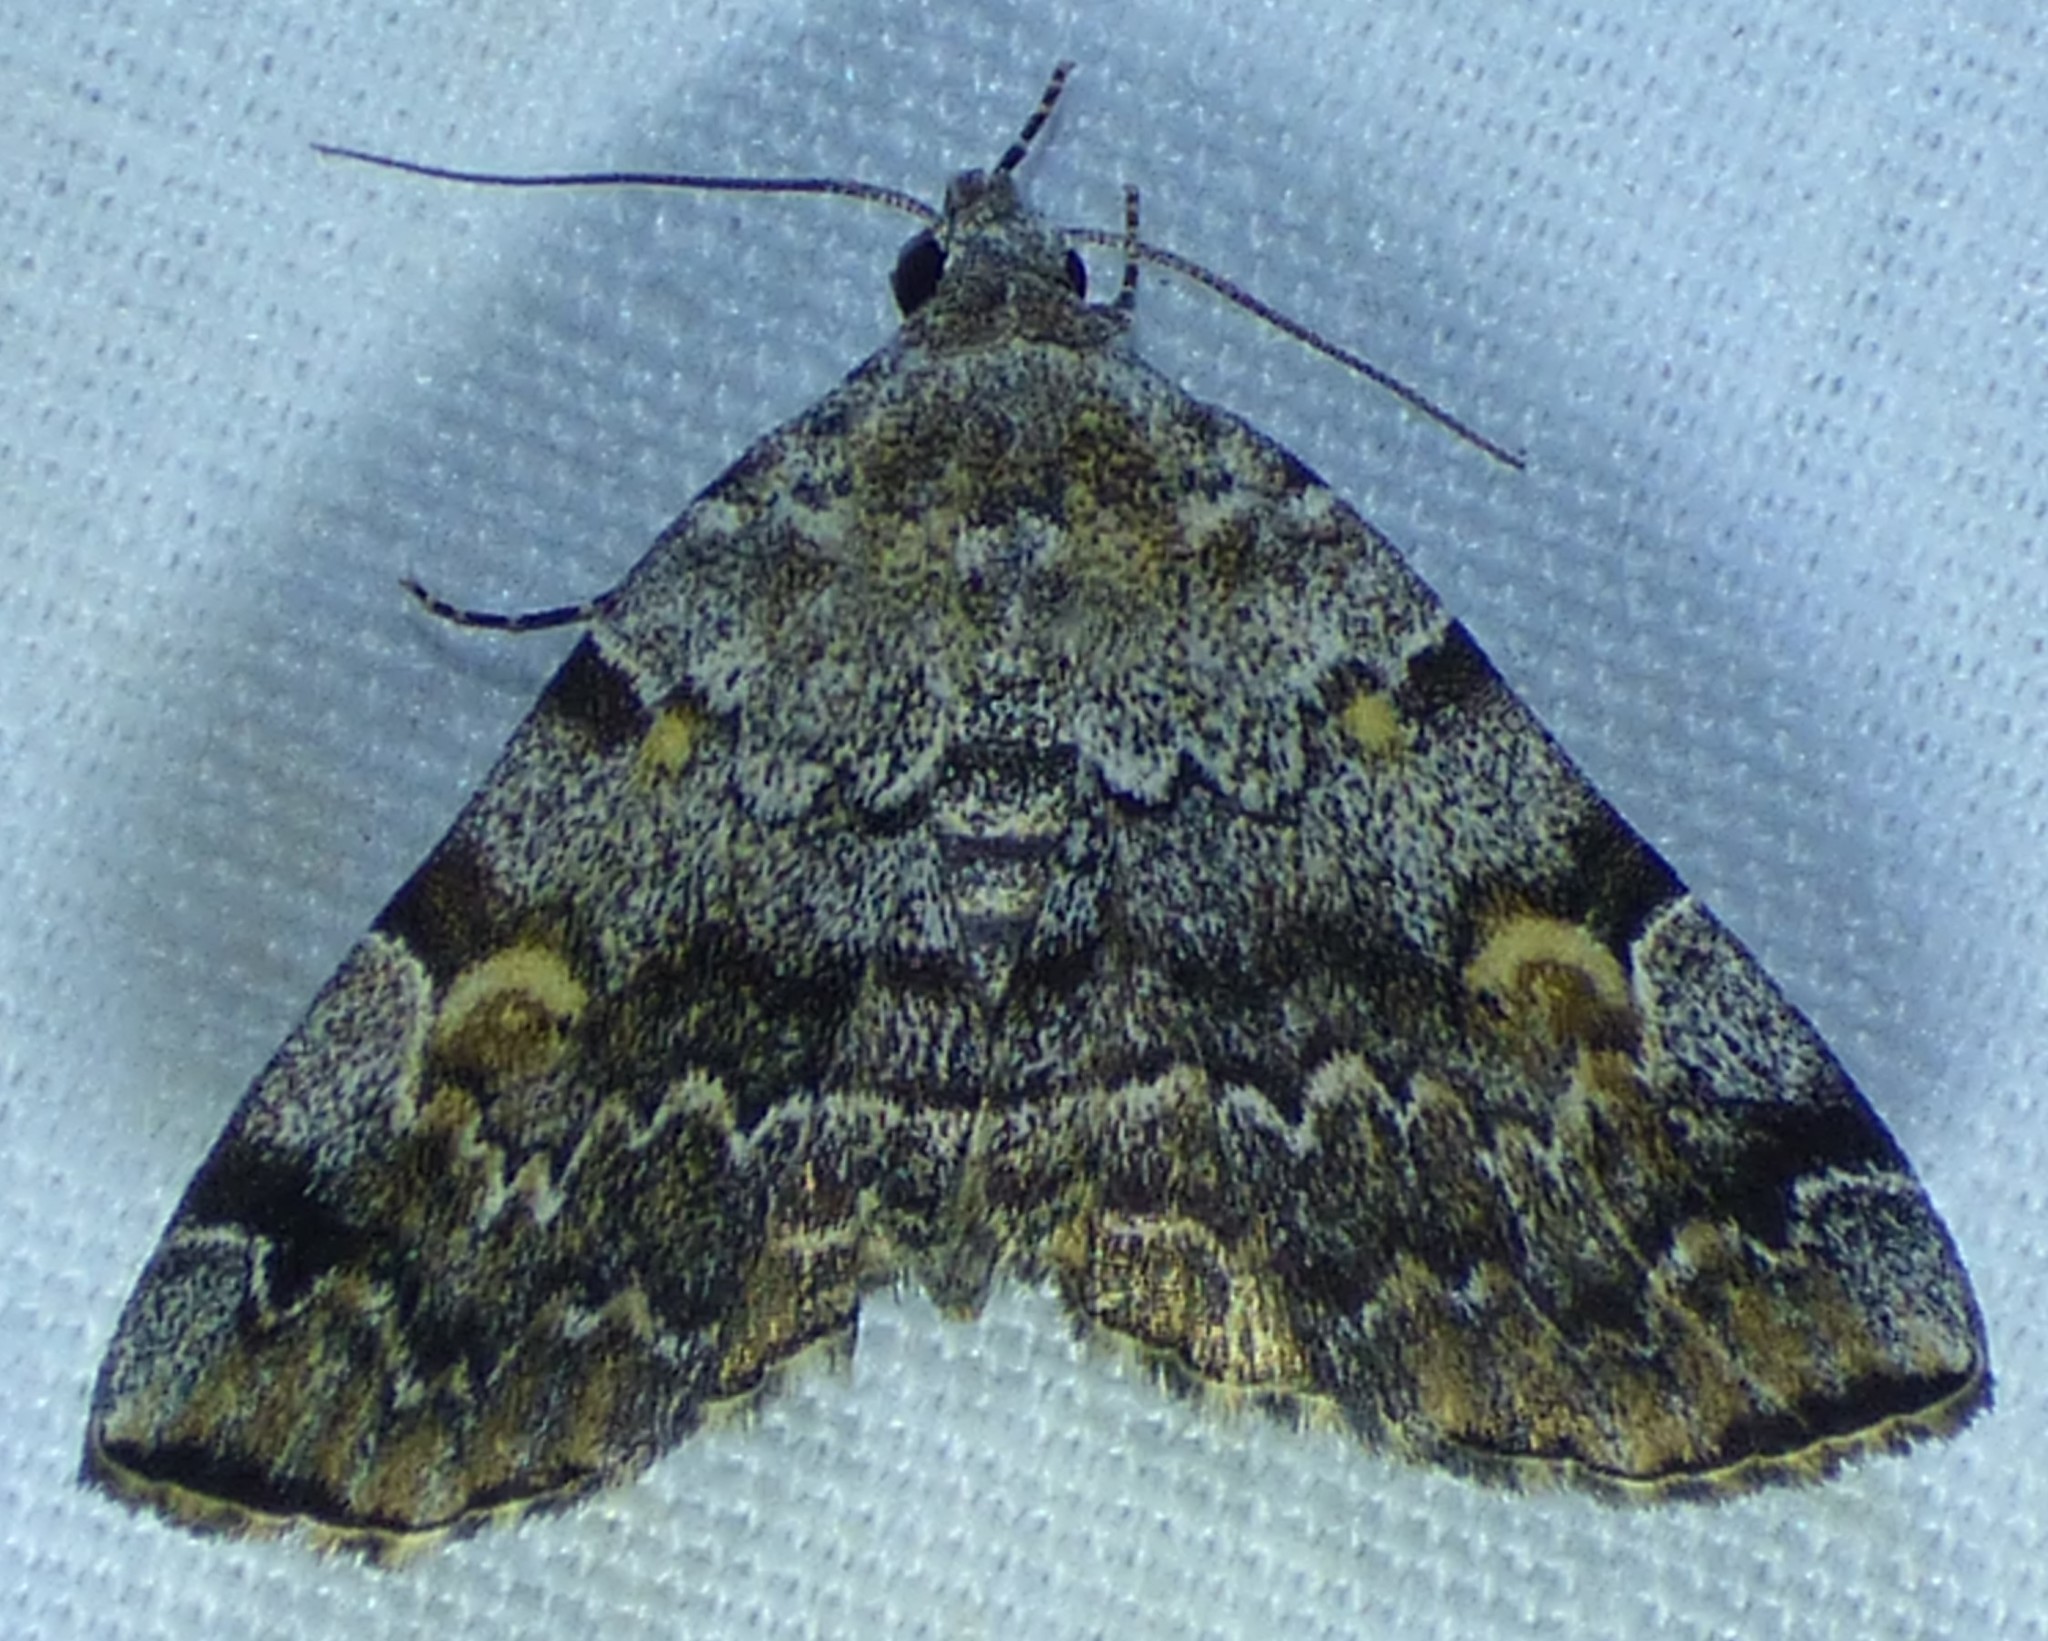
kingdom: Animalia
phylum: Arthropoda
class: Insecta
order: Lepidoptera
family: Erebidae
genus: Idia
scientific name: Idia americalis
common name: American idia moth
